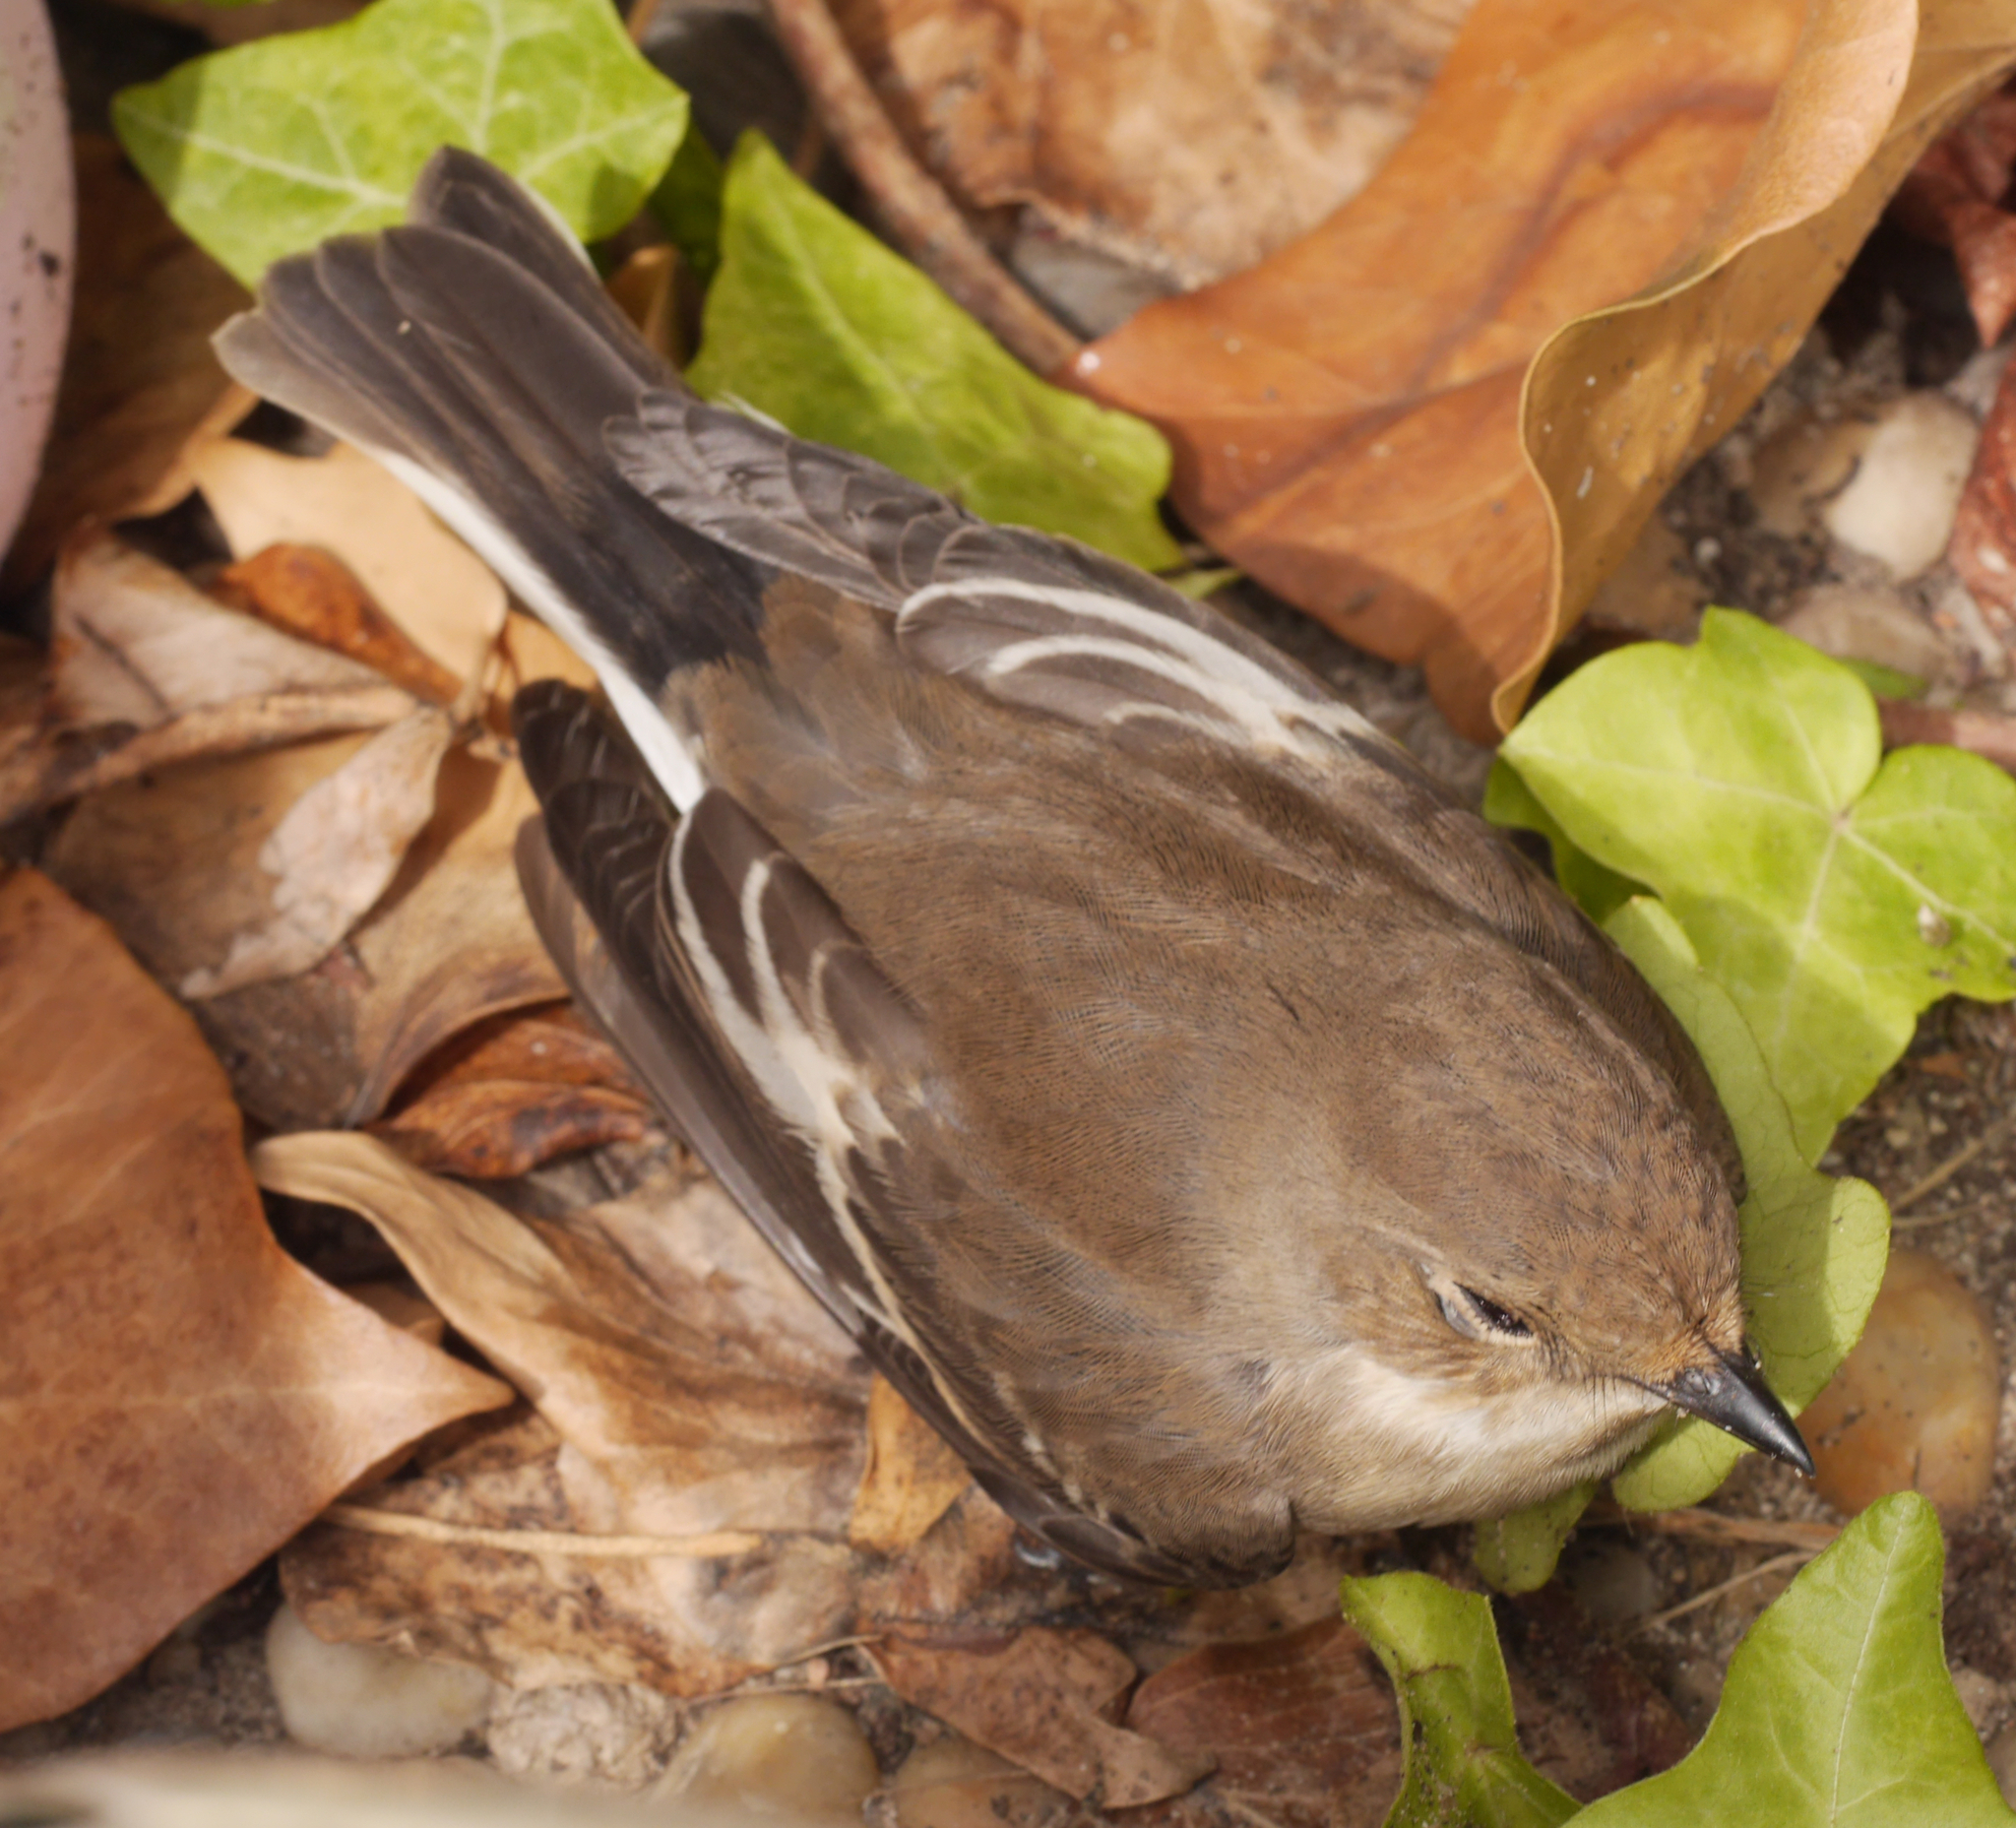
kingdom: Animalia
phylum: Chordata
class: Aves
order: Passeriformes
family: Muscicapidae
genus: Ficedula
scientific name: Ficedula hypoleuca
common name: European pied flycatcher
